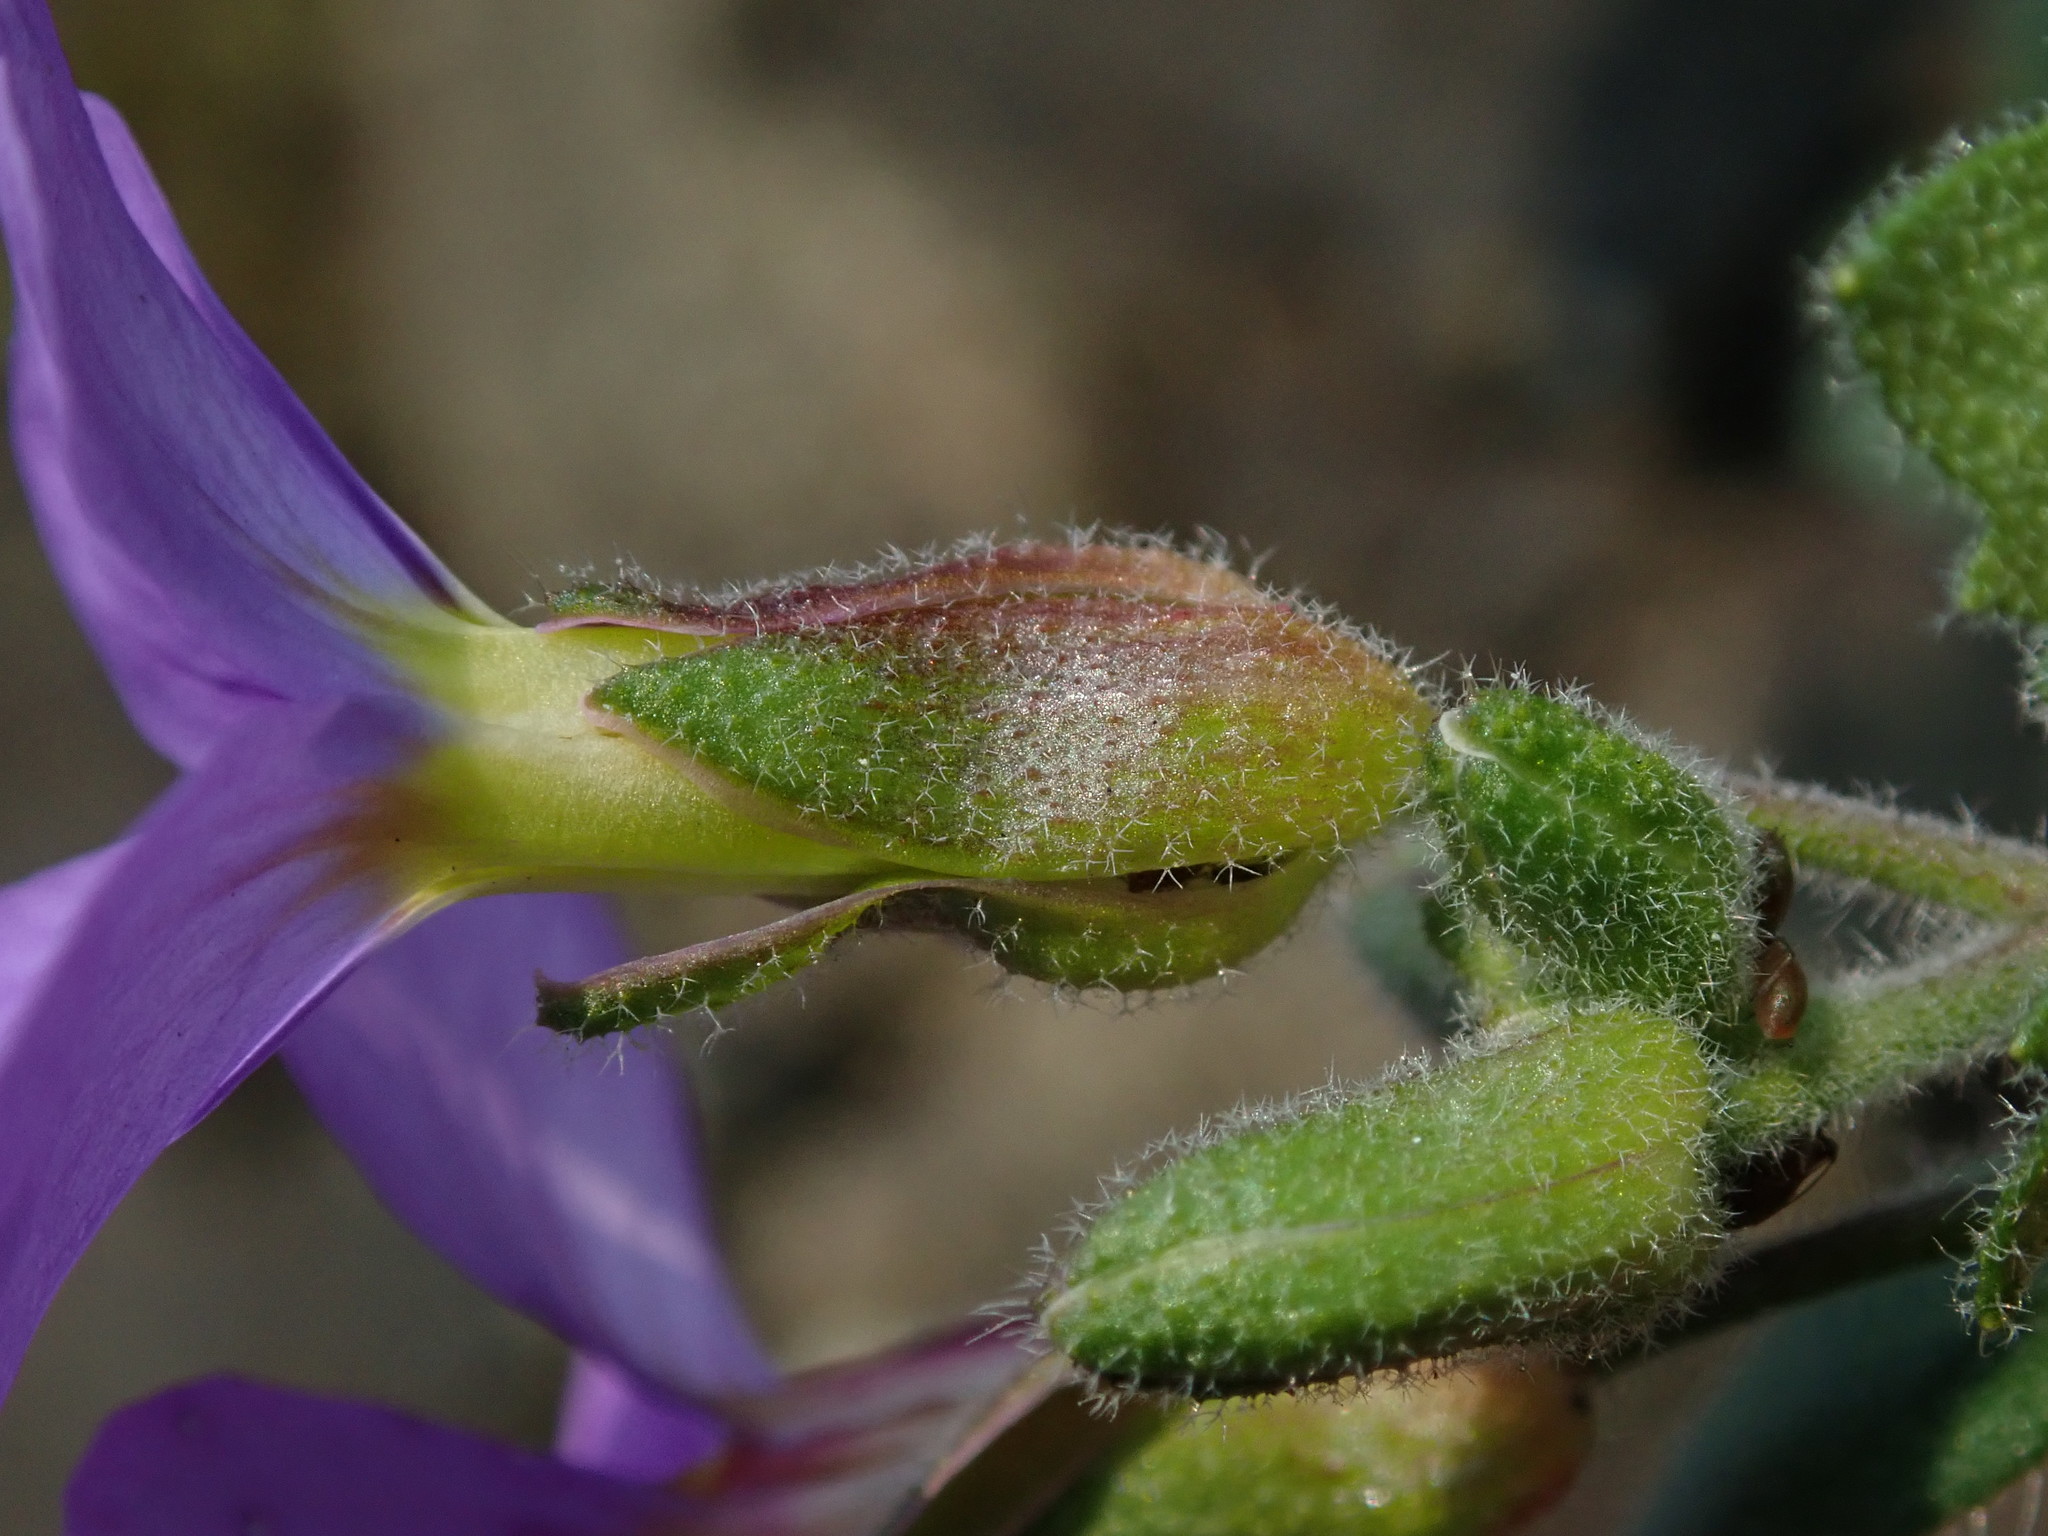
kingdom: Plantae
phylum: Tracheophyta
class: Magnoliopsida
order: Brassicales
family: Brassicaceae
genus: Aubrieta
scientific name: Aubrieta deltoidea
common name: Aubretia
